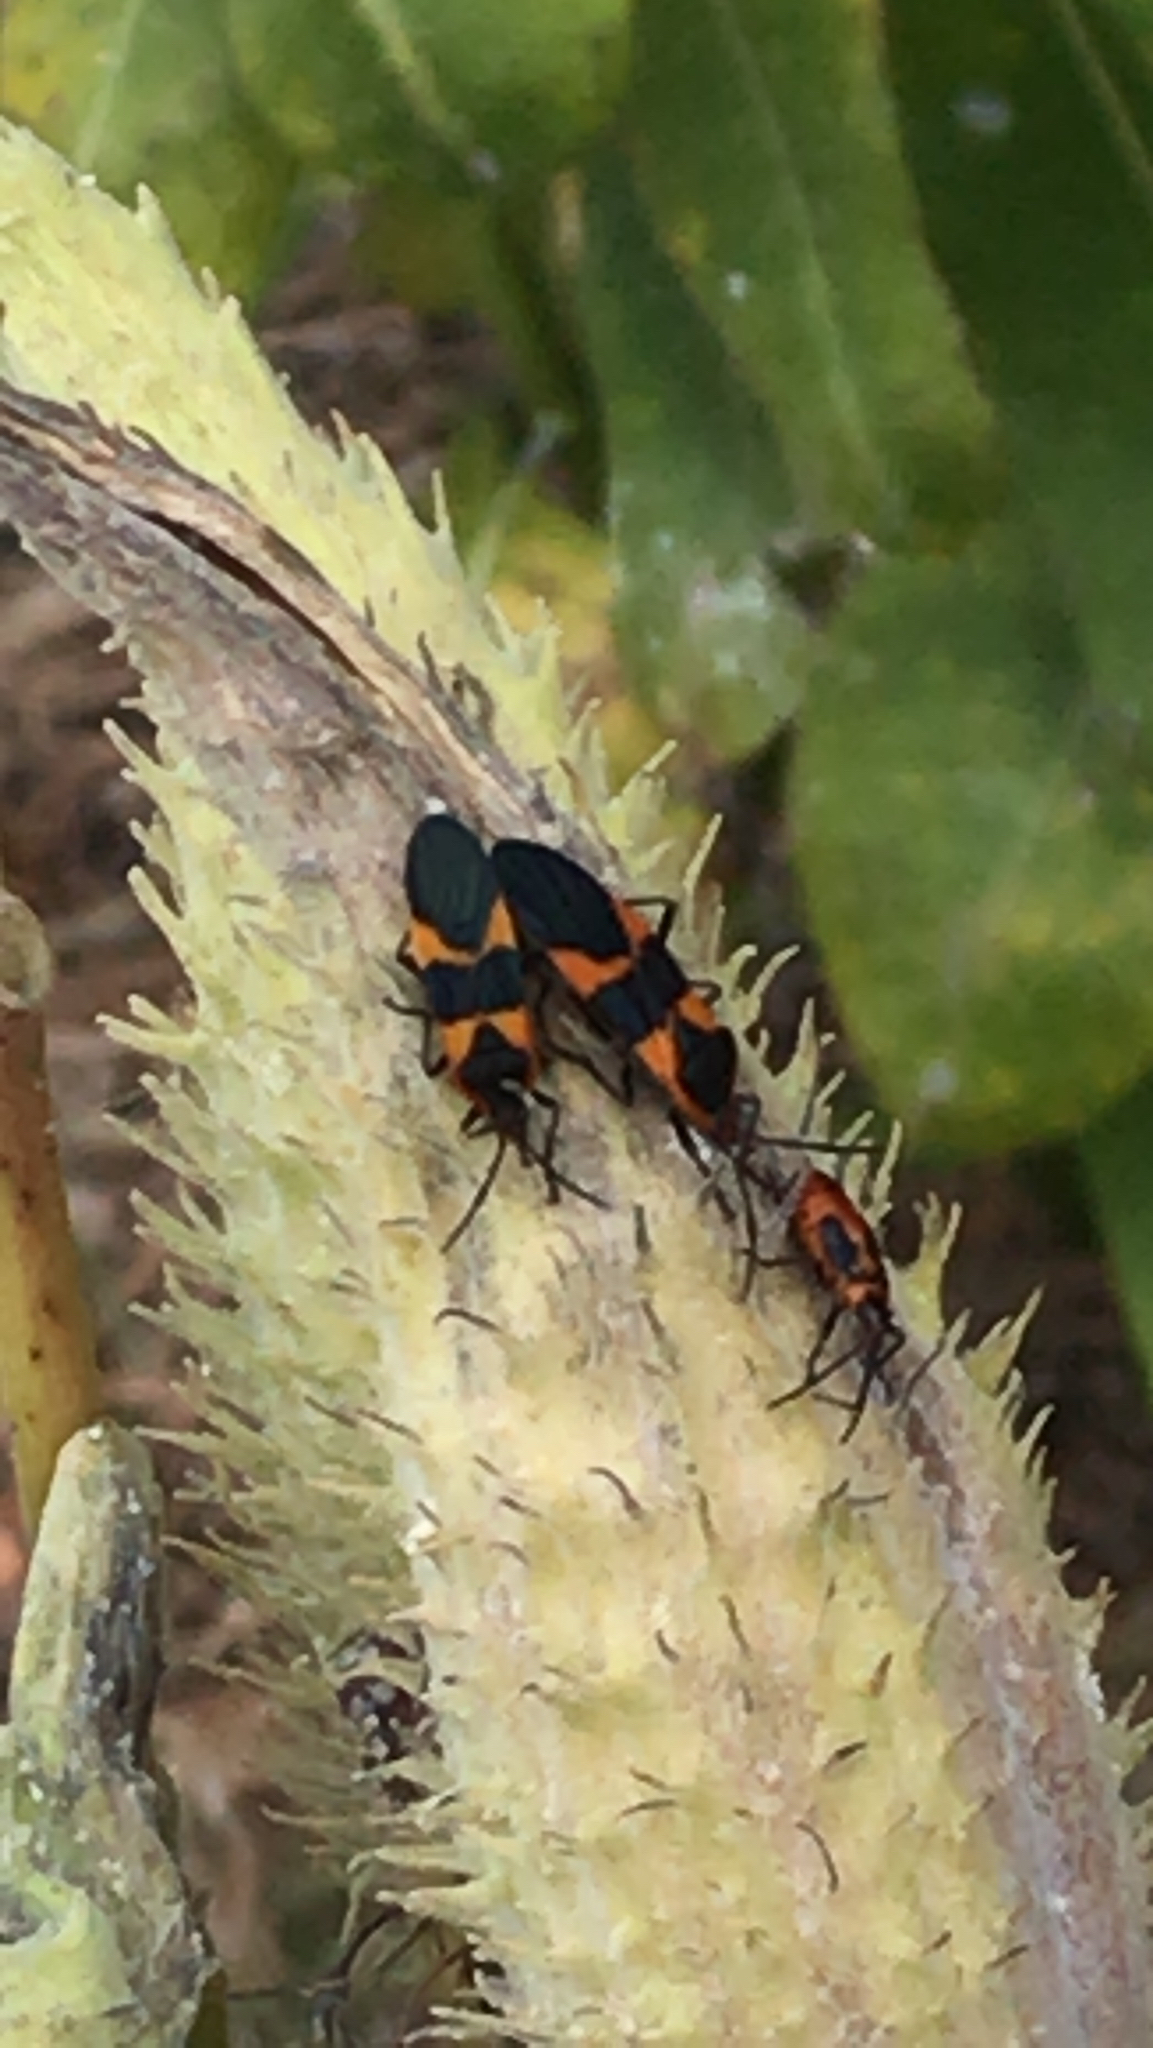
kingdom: Animalia
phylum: Arthropoda
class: Insecta
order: Hemiptera
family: Lygaeidae
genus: Oncopeltus
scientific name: Oncopeltus fasciatus
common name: Large milkweed bug
